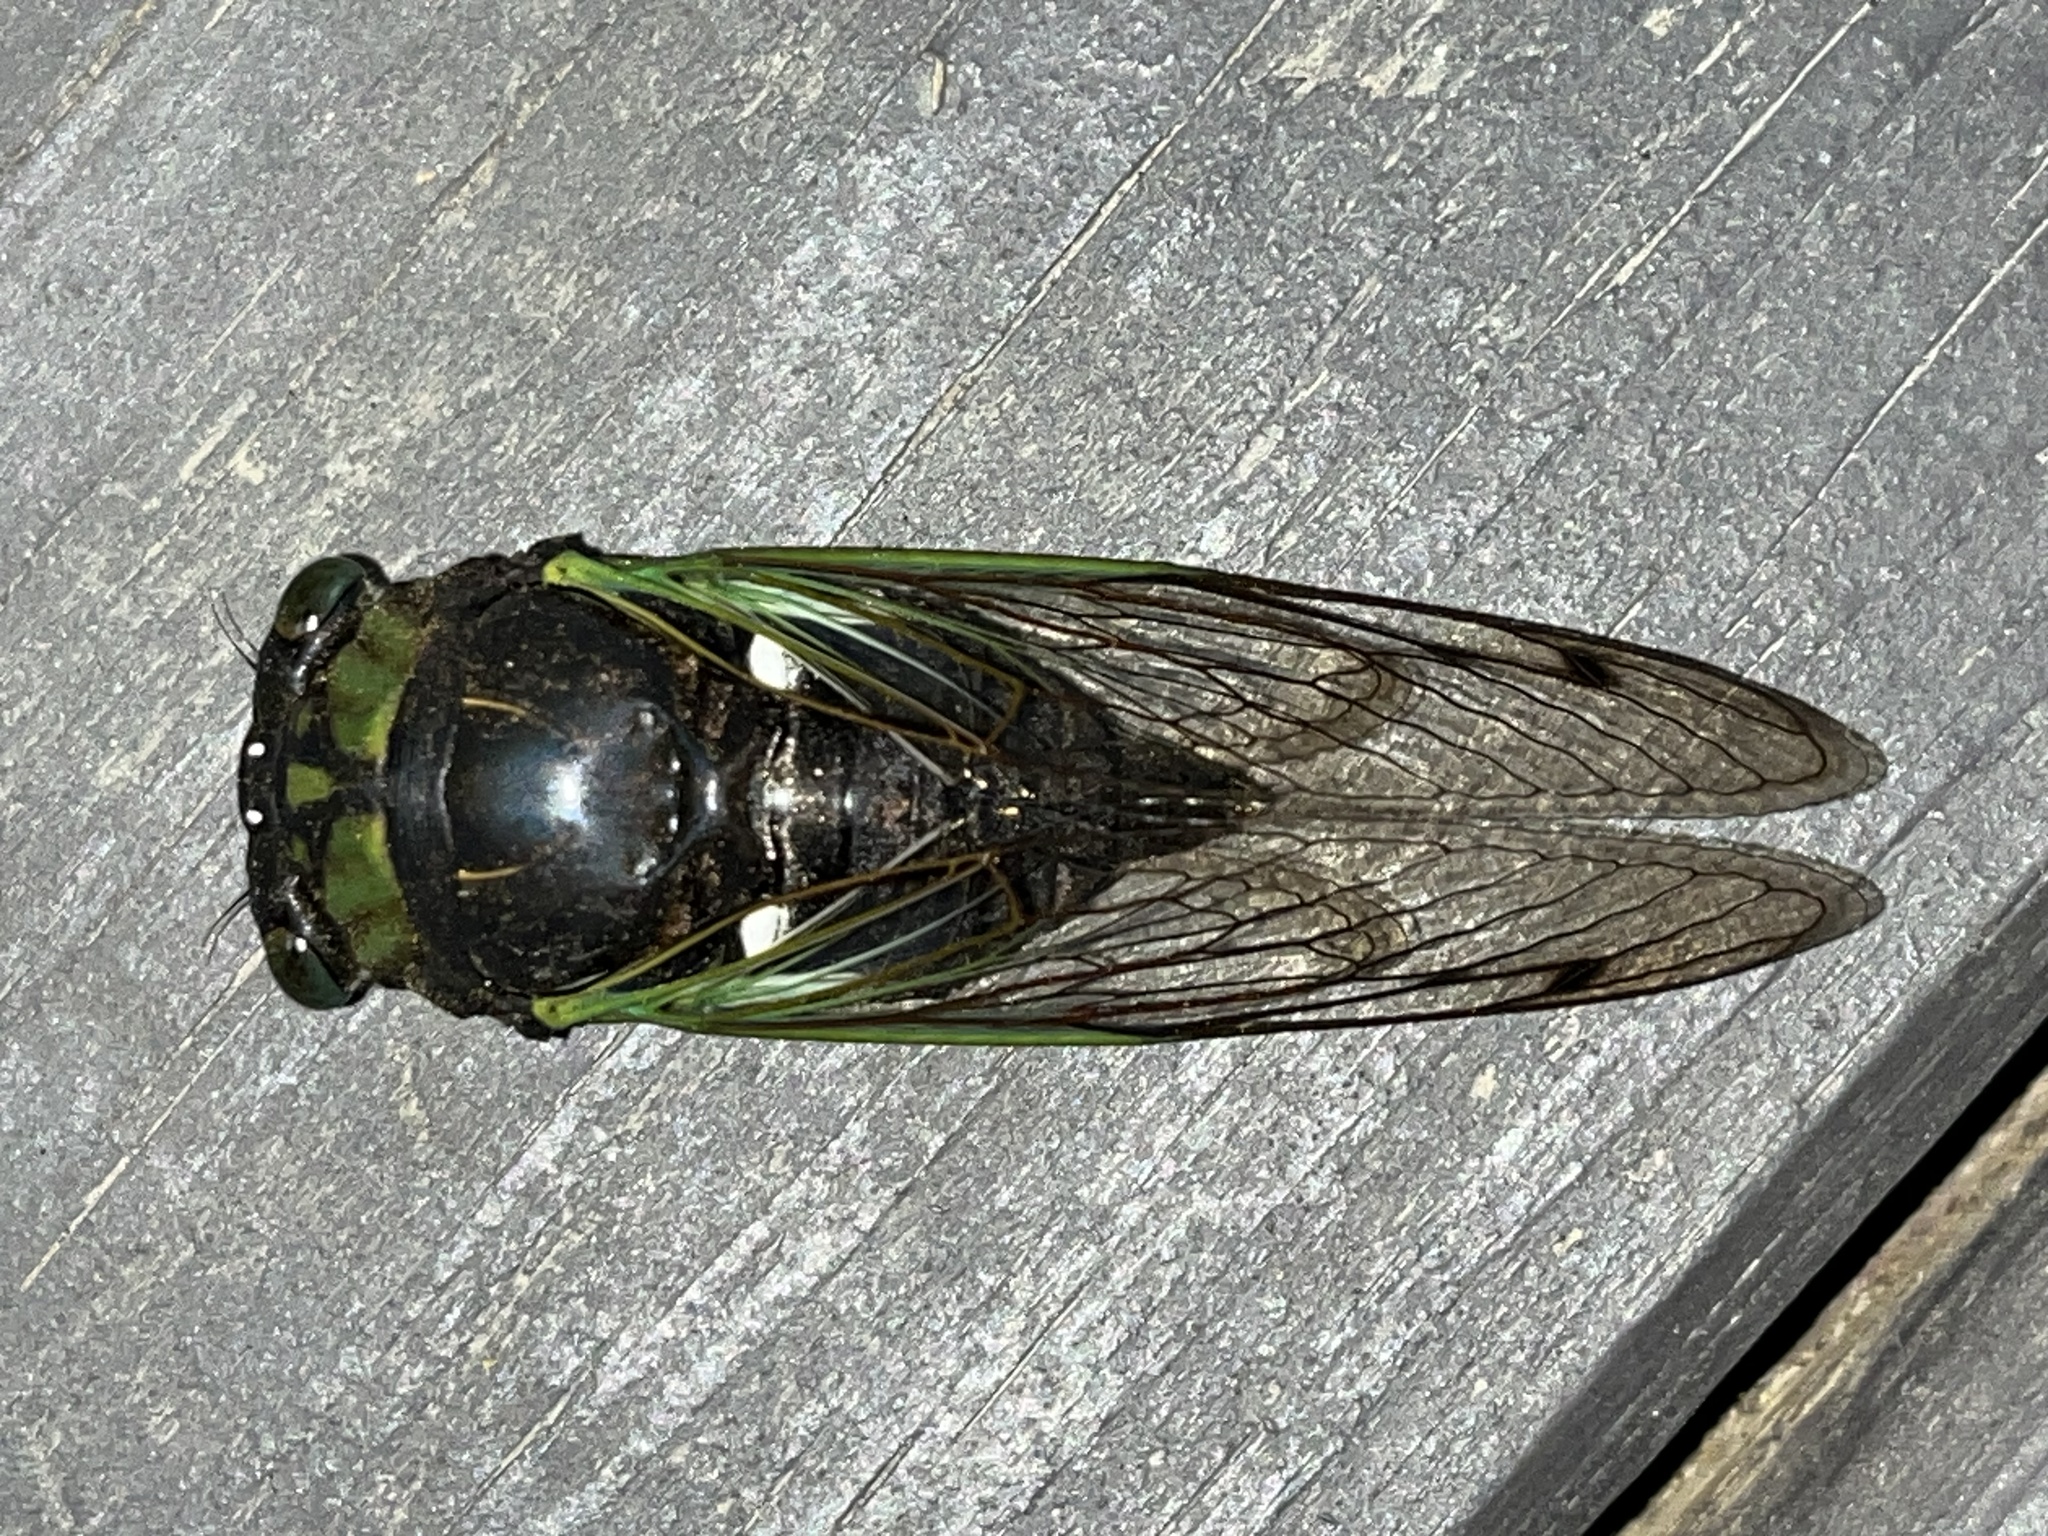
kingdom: Animalia
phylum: Arthropoda
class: Insecta
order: Hemiptera
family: Cicadidae
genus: Neotibicen
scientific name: Neotibicen tibicen
